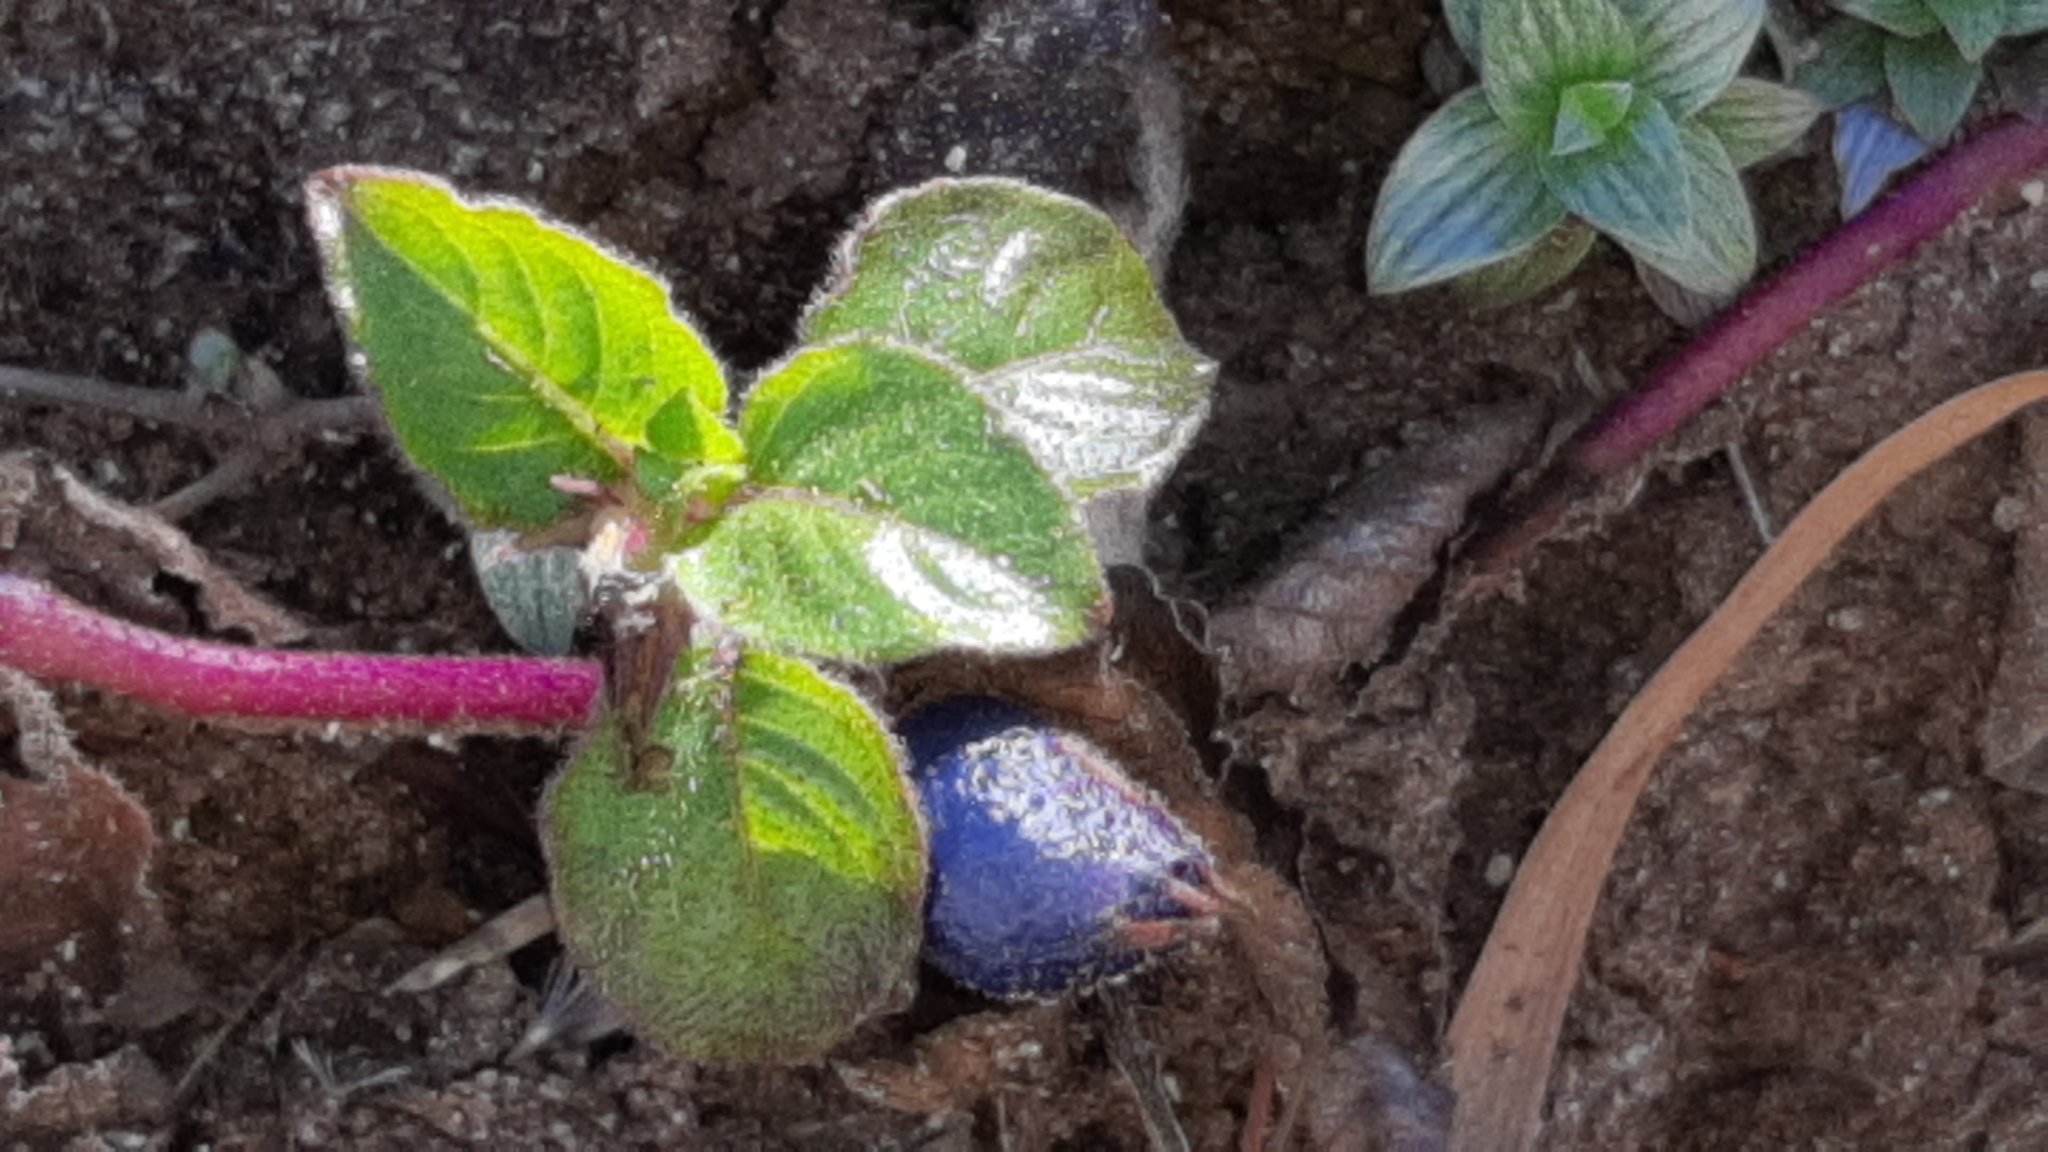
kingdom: Plantae
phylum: Tracheophyta
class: Magnoliopsida
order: Gentianales
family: Rubiaceae
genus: Coccocypselum
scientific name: Coccocypselum hispidulum
